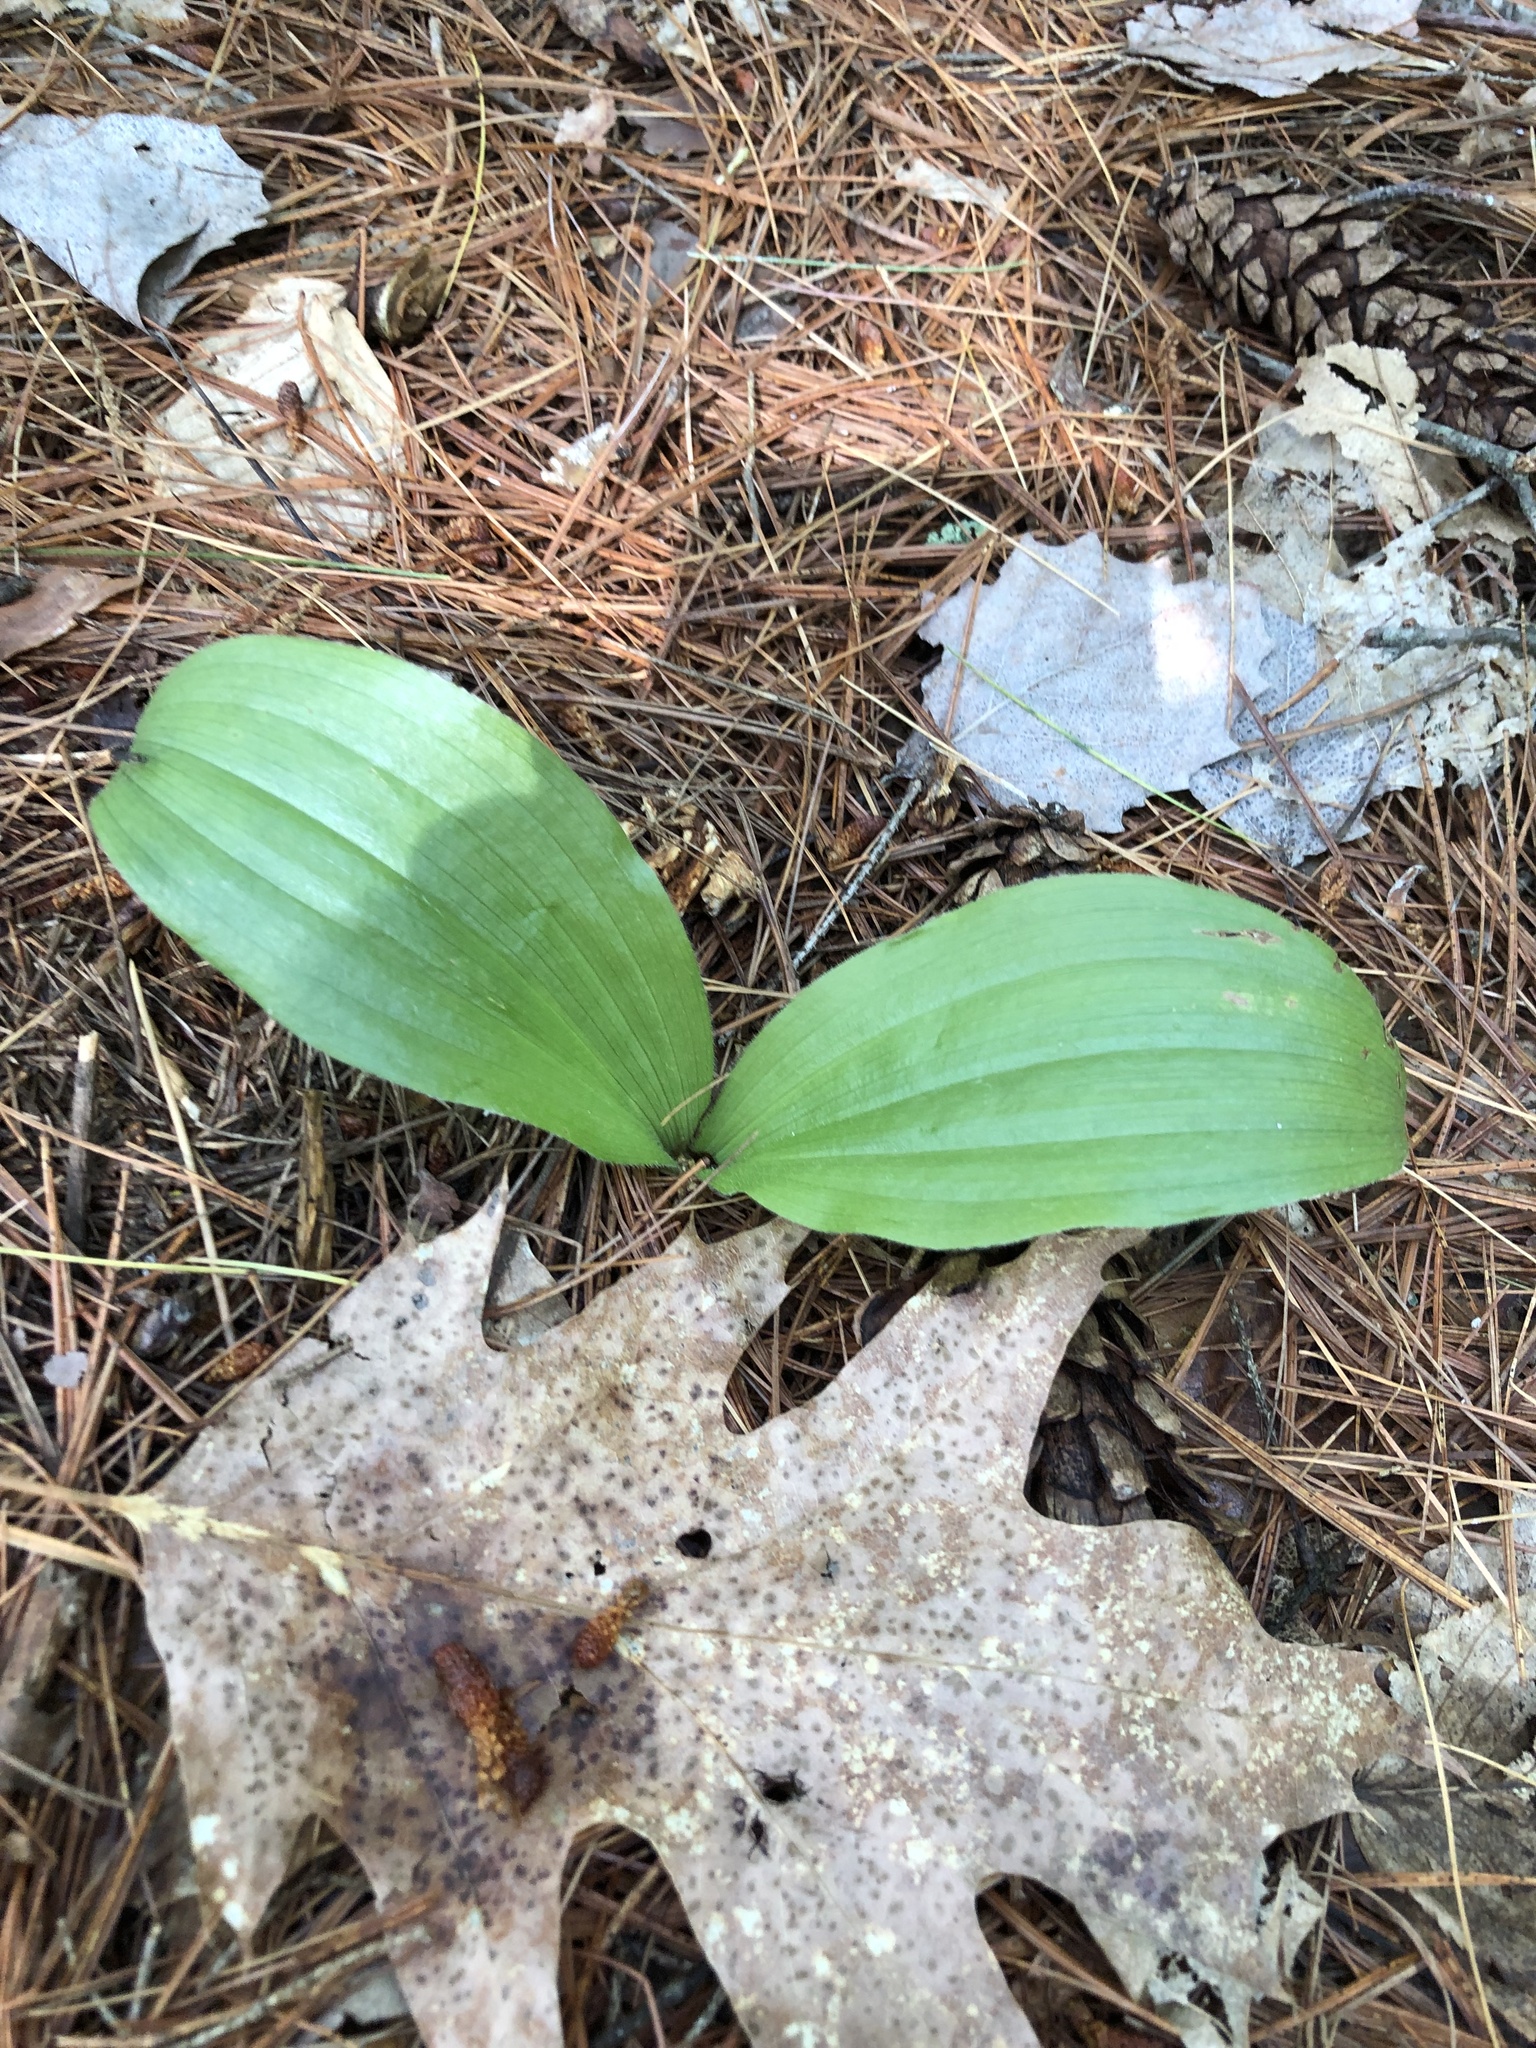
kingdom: Plantae
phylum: Tracheophyta
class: Liliopsida
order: Asparagales
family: Orchidaceae
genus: Cypripedium
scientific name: Cypripedium acaule
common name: Pink lady's-slipper
